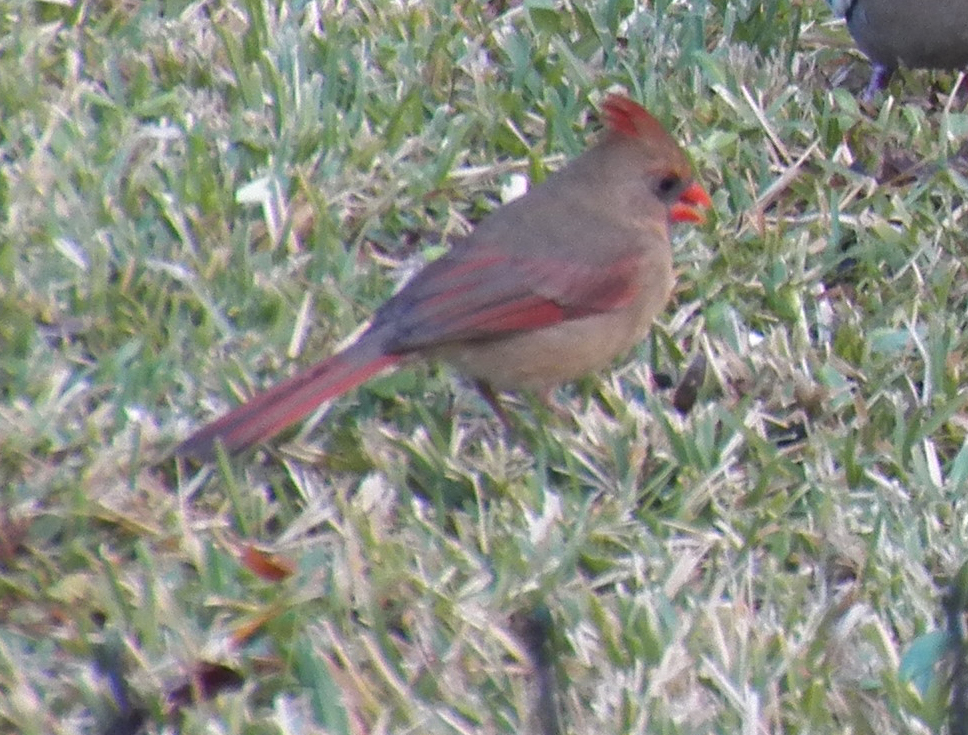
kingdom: Animalia
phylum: Chordata
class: Aves
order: Passeriformes
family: Cardinalidae
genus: Cardinalis
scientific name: Cardinalis cardinalis
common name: Northern cardinal
